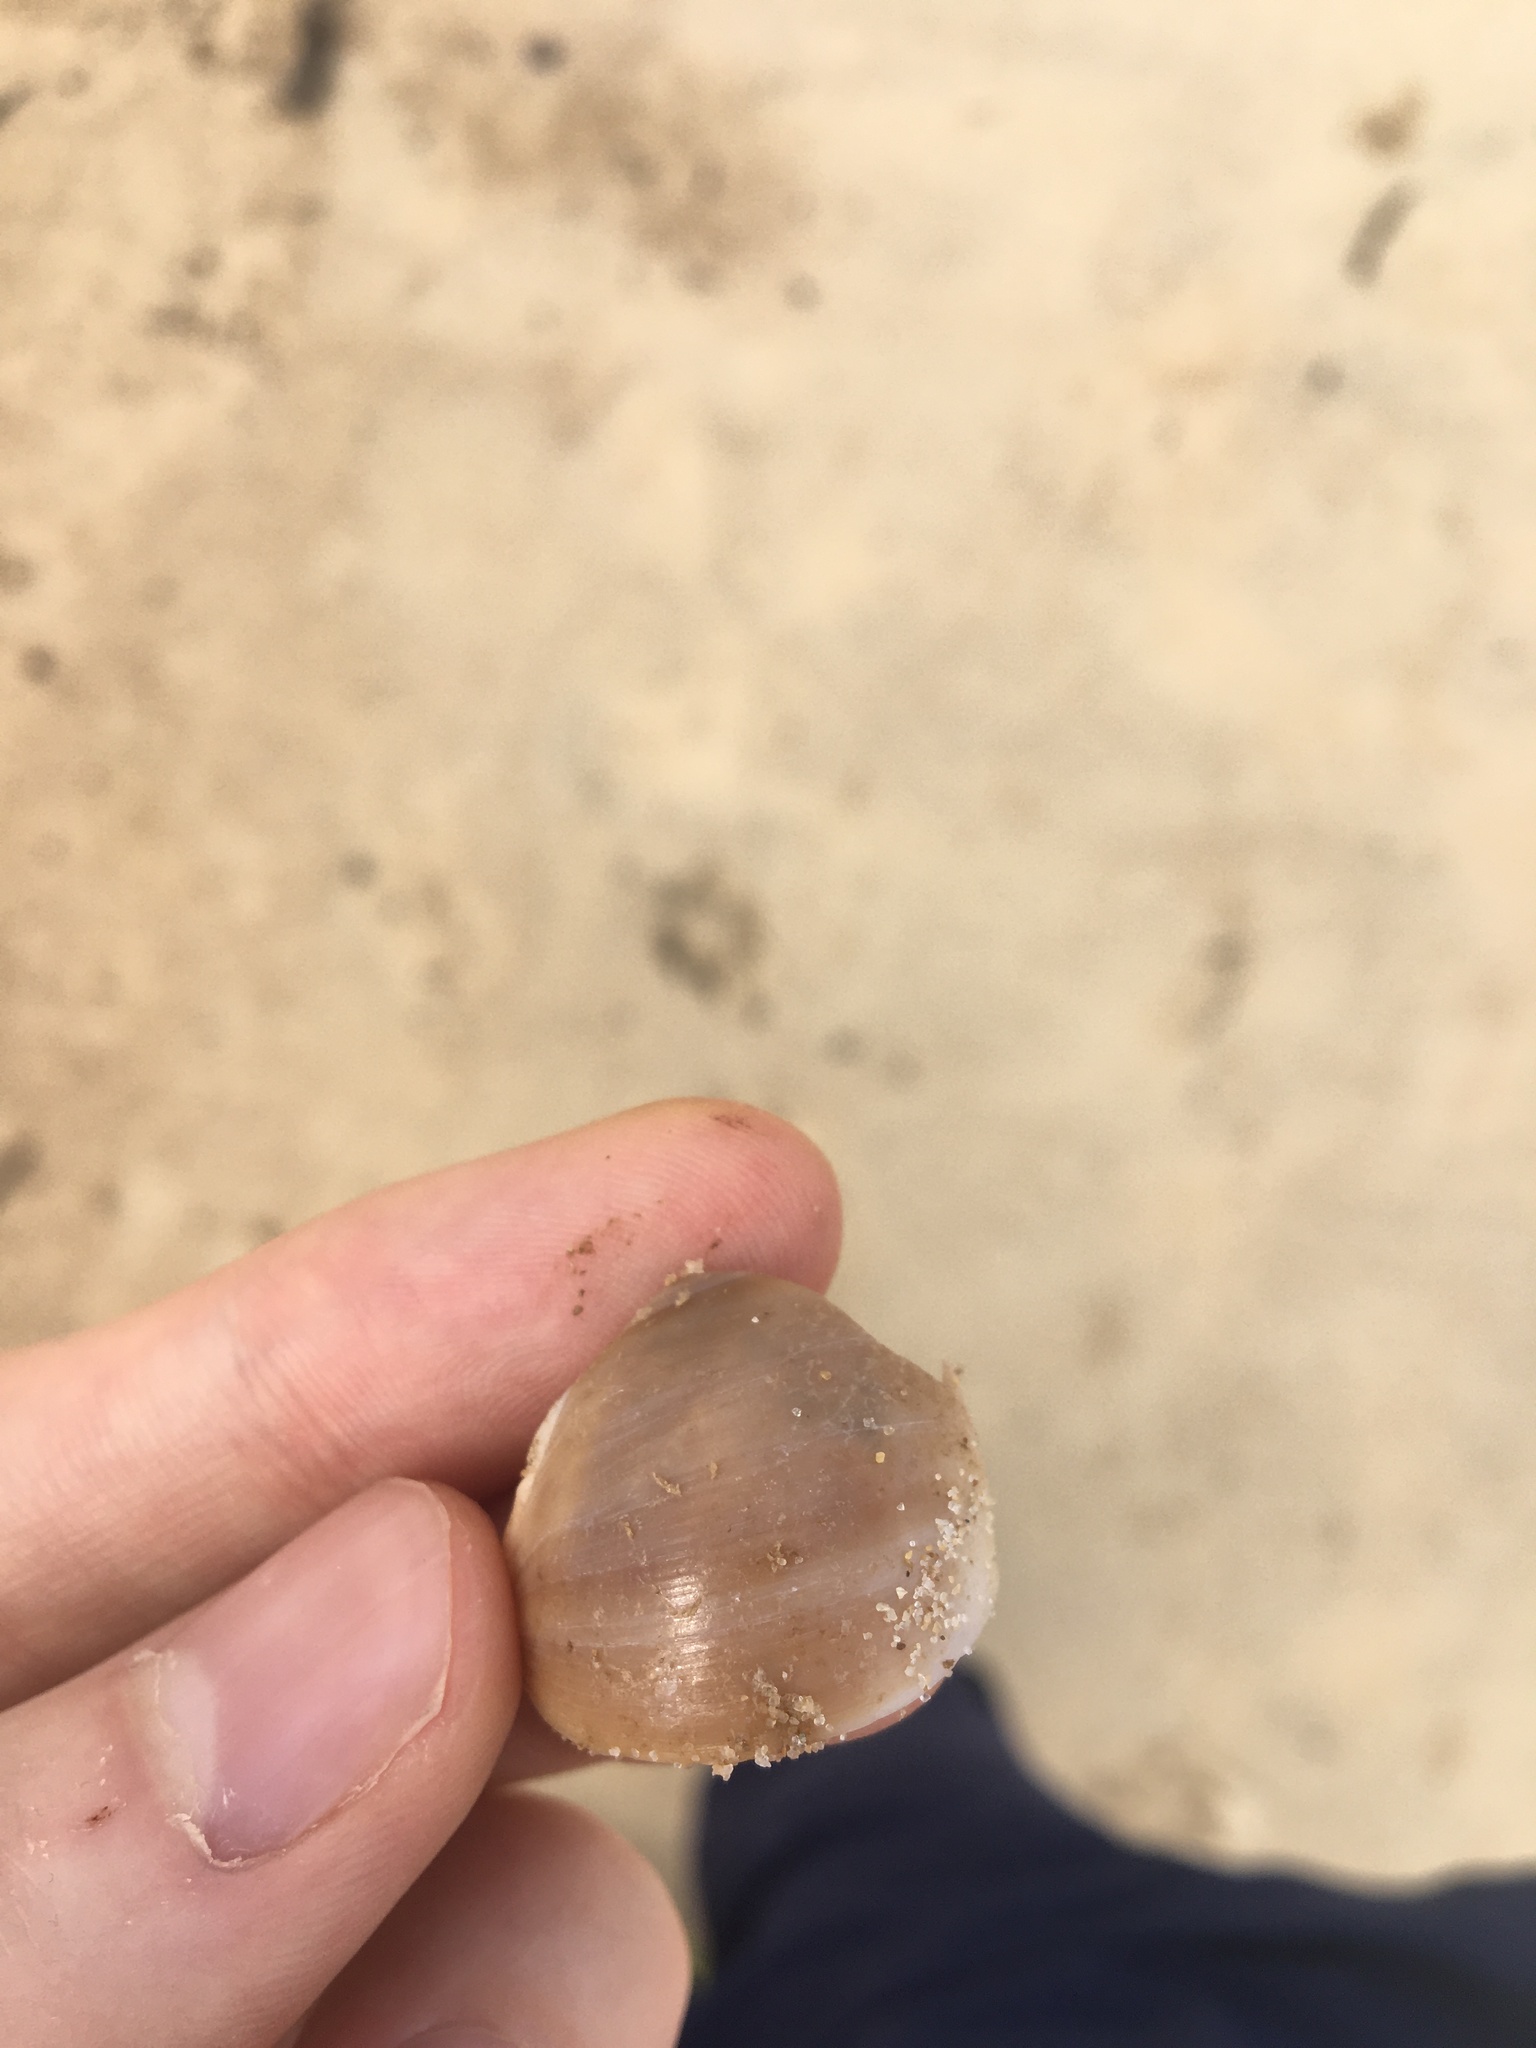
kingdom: Animalia
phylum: Mollusca
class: Gastropoda
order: Littorinimorpha
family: Naticidae
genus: Neverita
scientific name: Neverita didyma
